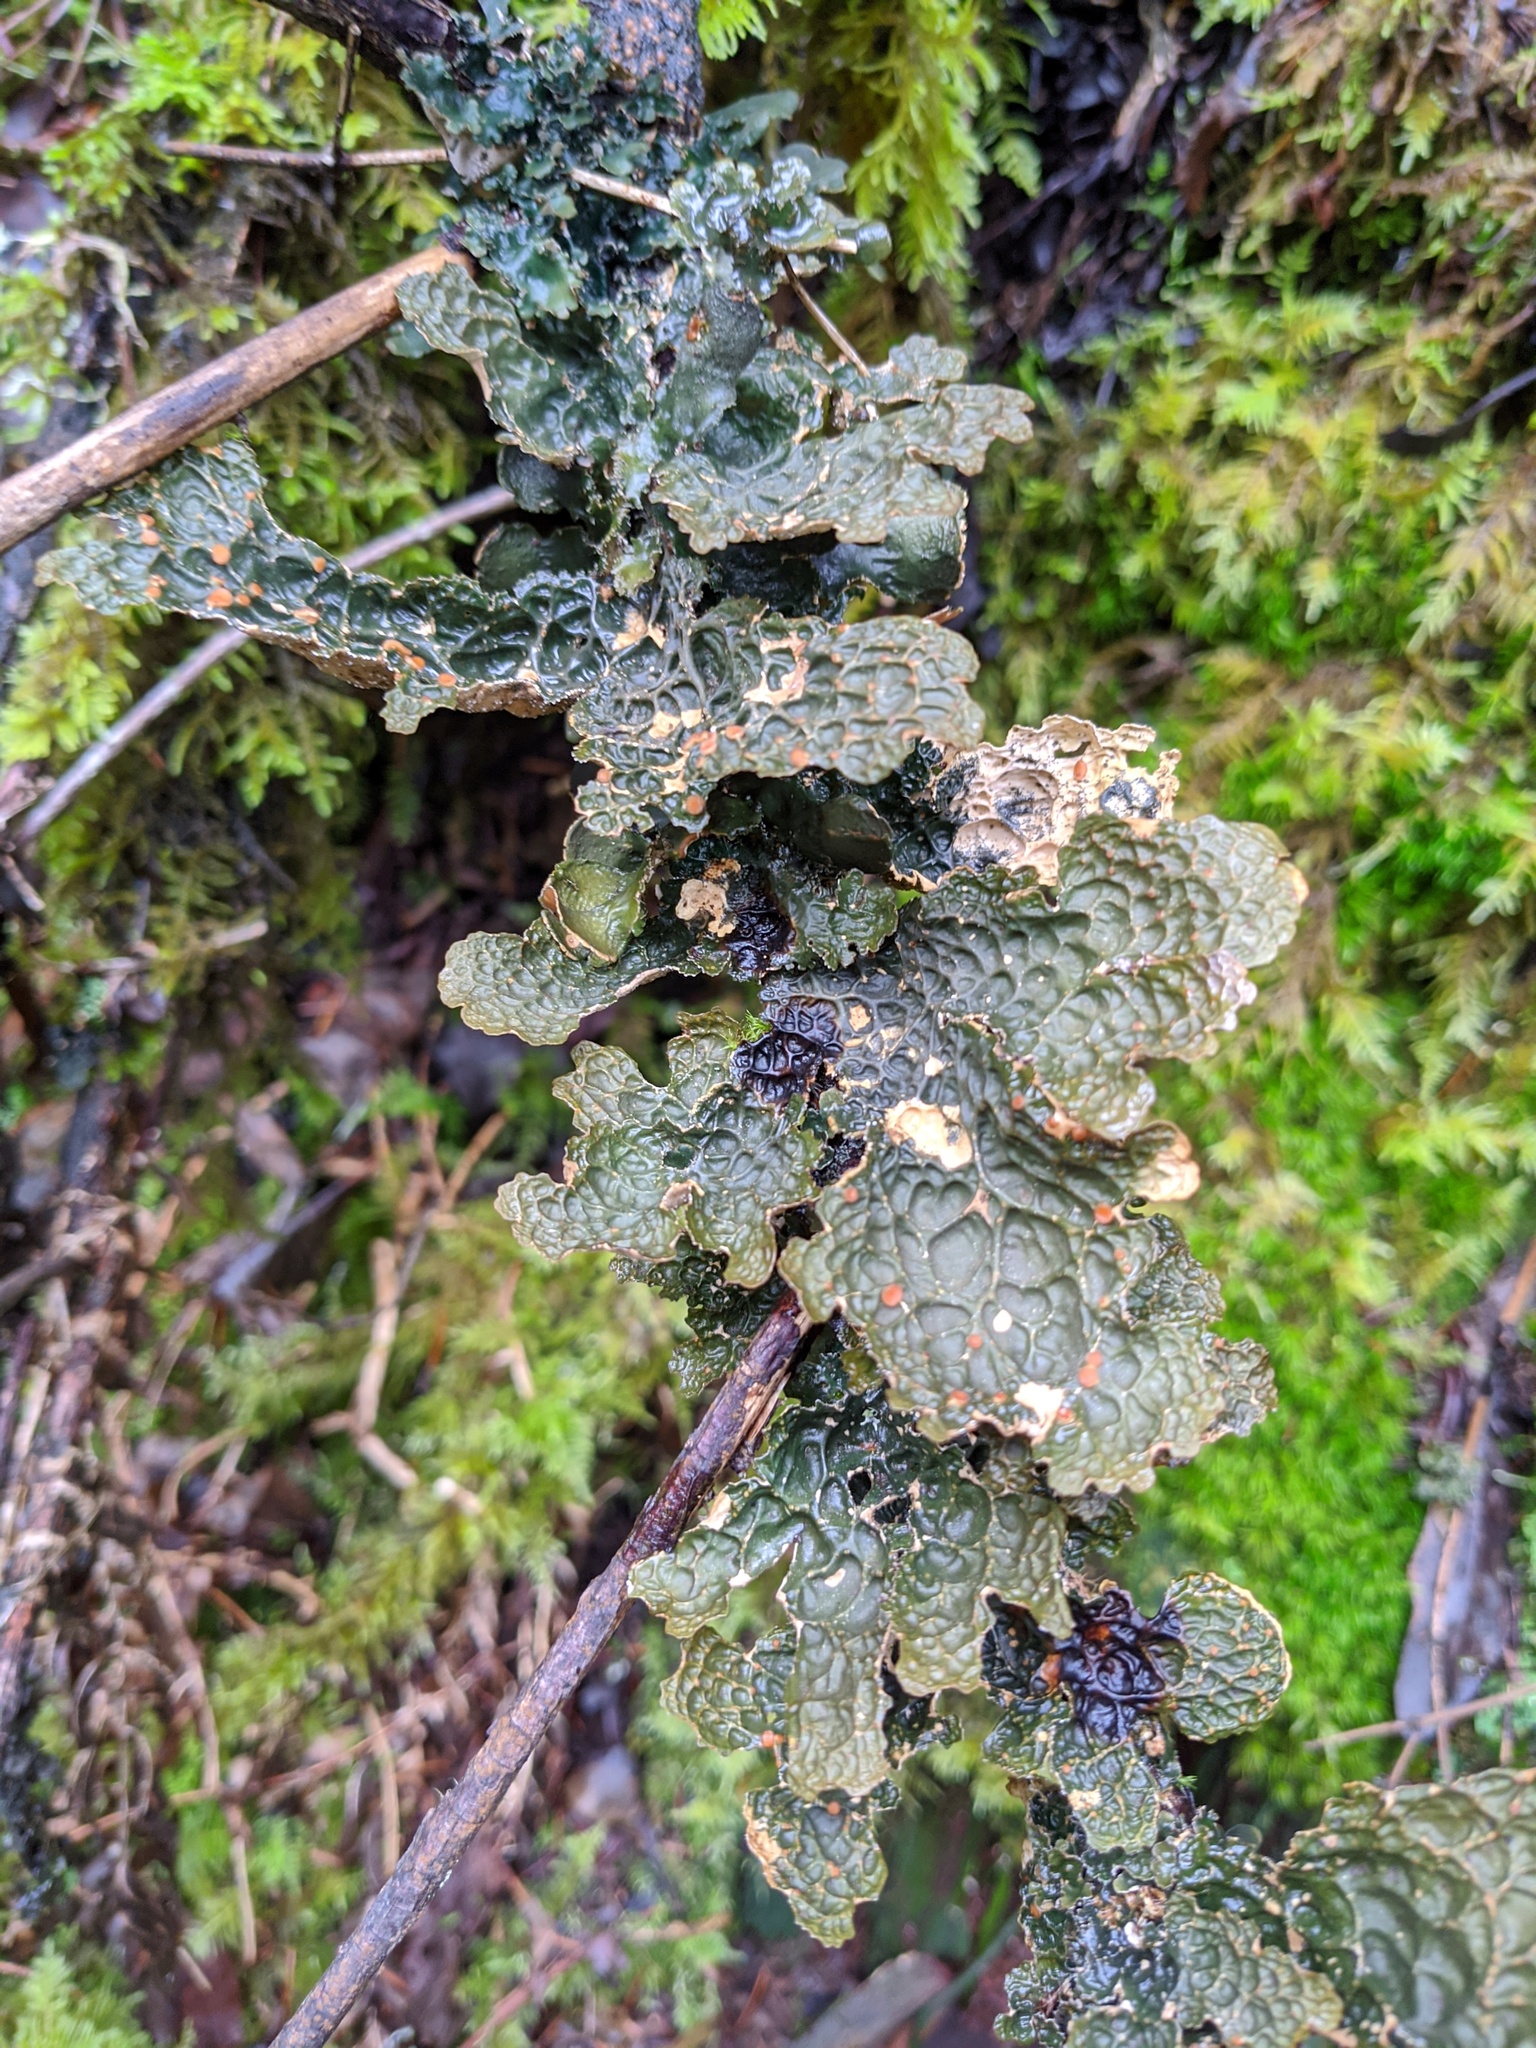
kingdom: Fungi
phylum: Ascomycota
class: Lecanoromycetes
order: Peltigerales
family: Lobariaceae
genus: Lobaria
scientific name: Lobaria anthraspis
